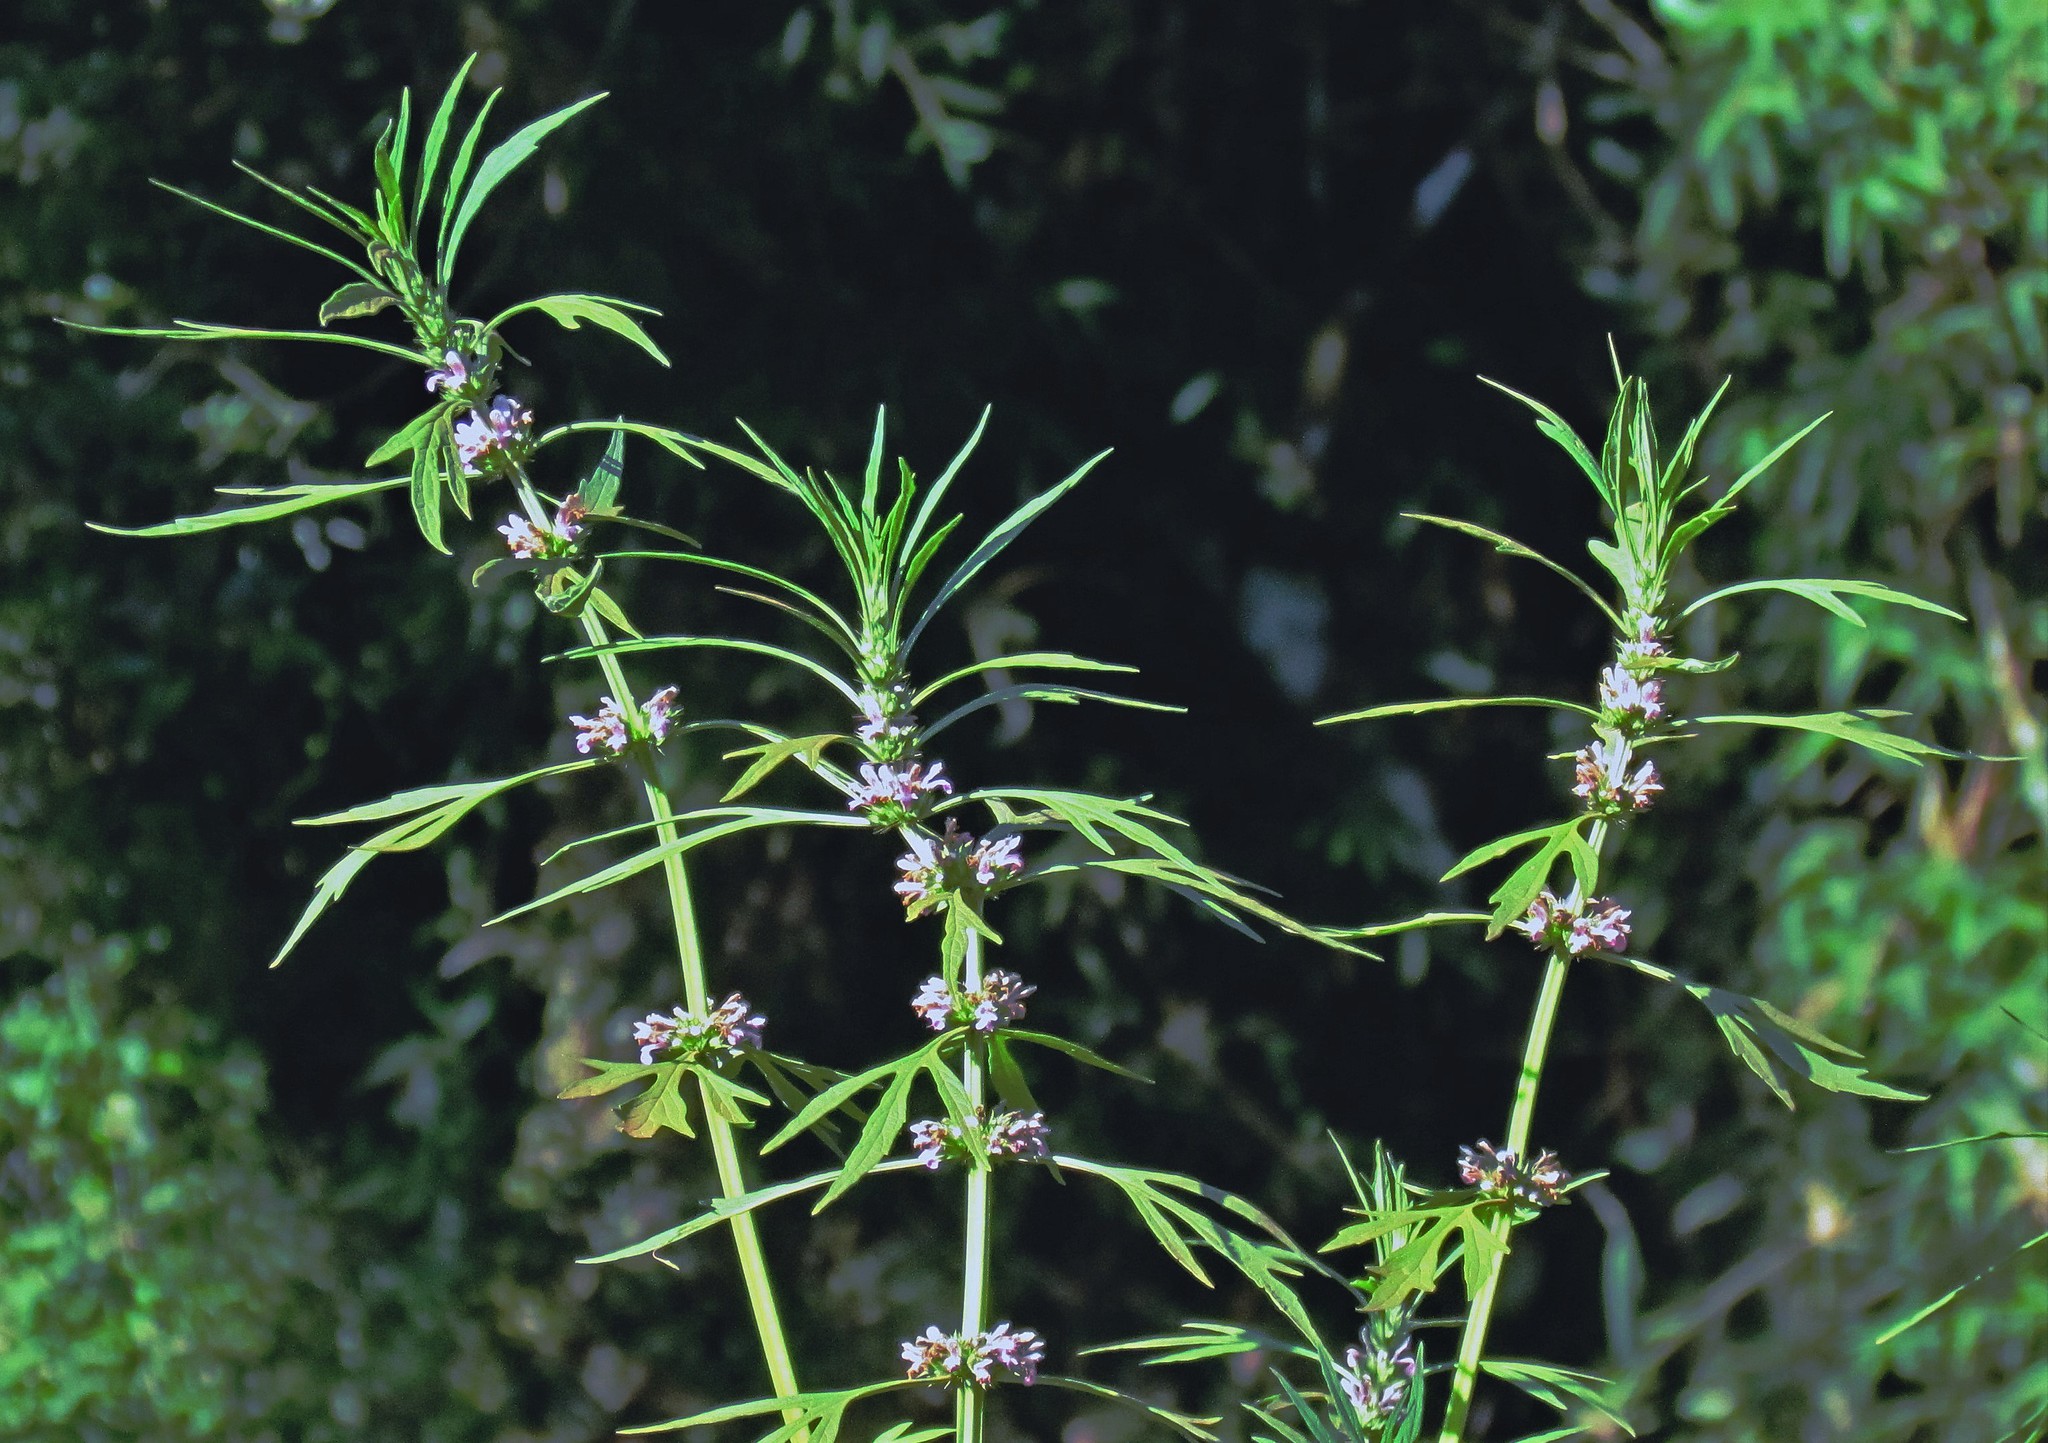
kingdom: Plantae
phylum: Tracheophyta
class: Magnoliopsida
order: Lamiales
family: Lamiaceae
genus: Leonurus
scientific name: Leonurus japonicus
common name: Honeyweed
